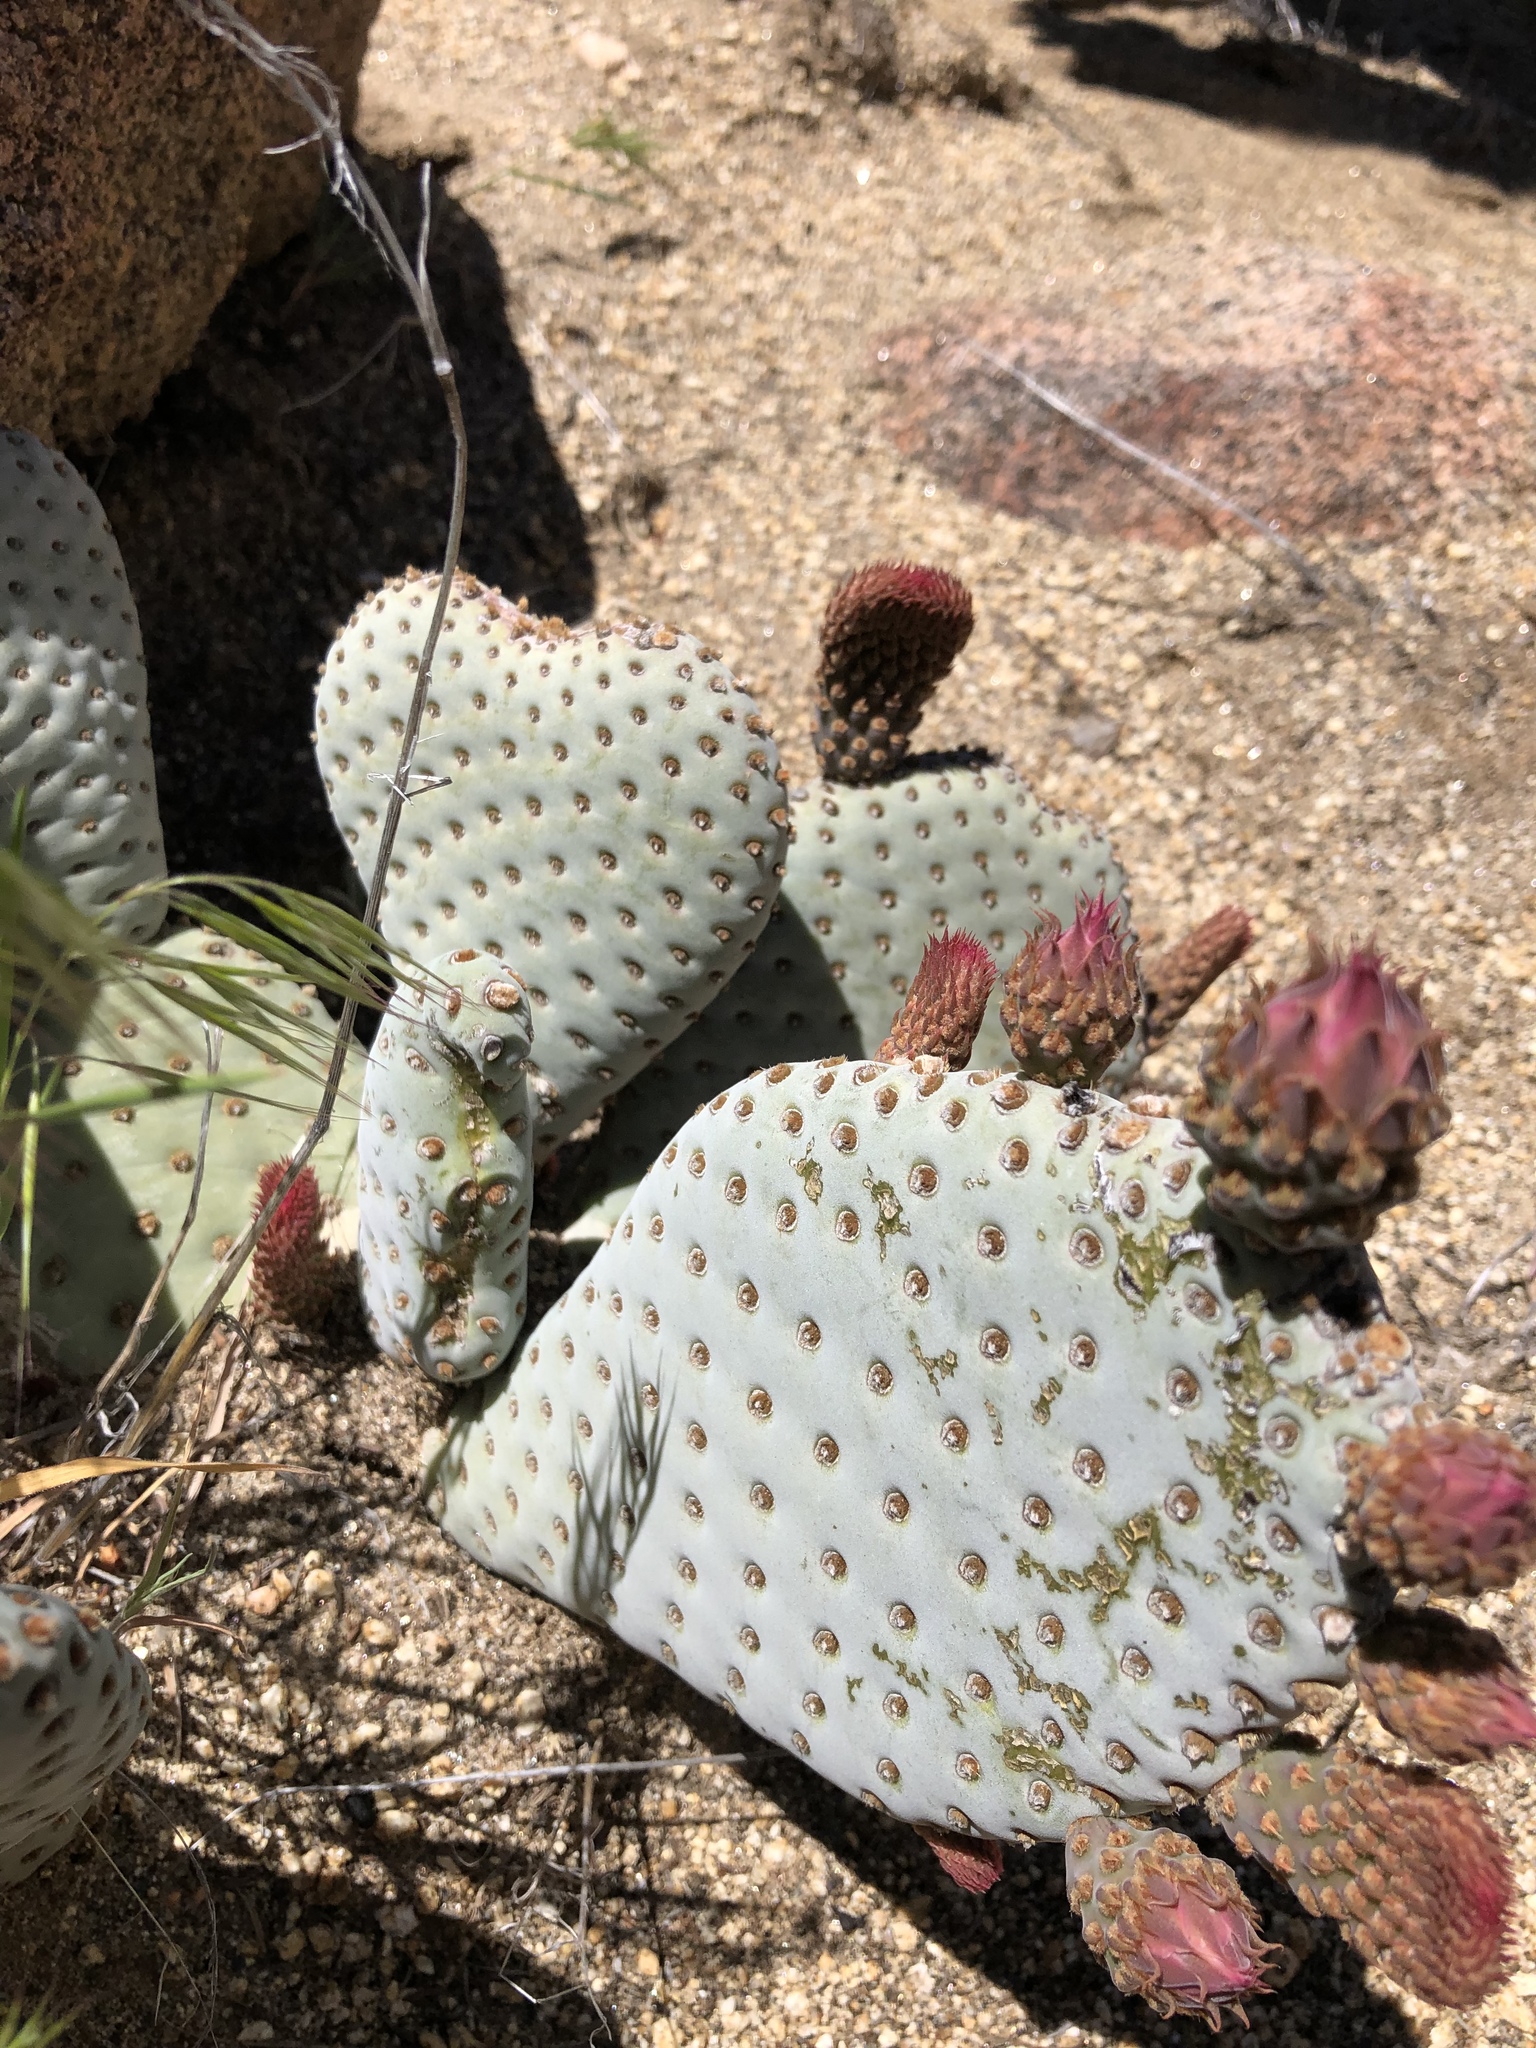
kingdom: Plantae
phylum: Tracheophyta
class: Magnoliopsida
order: Caryophyllales
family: Cactaceae
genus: Opuntia
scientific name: Opuntia basilaris
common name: Beavertail prickly-pear
